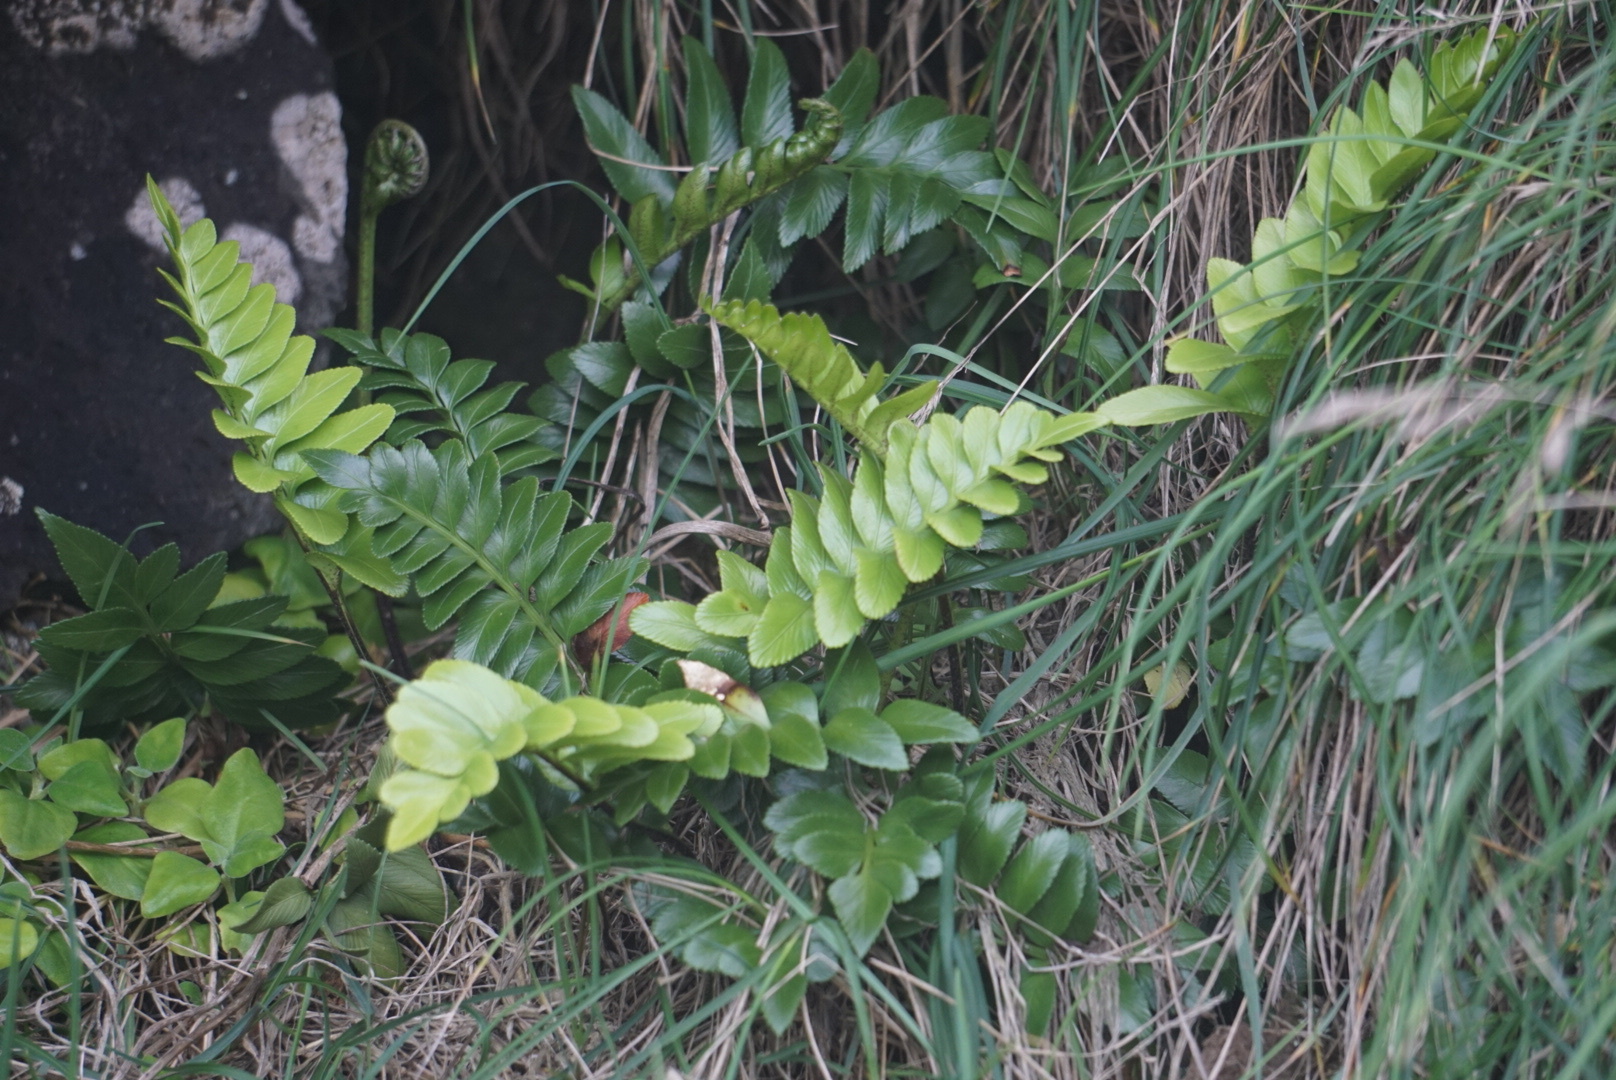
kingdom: Plantae
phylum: Tracheophyta
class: Polypodiopsida
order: Polypodiales
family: Aspleniaceae
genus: Asplenium
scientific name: Asplenium obtusatum
